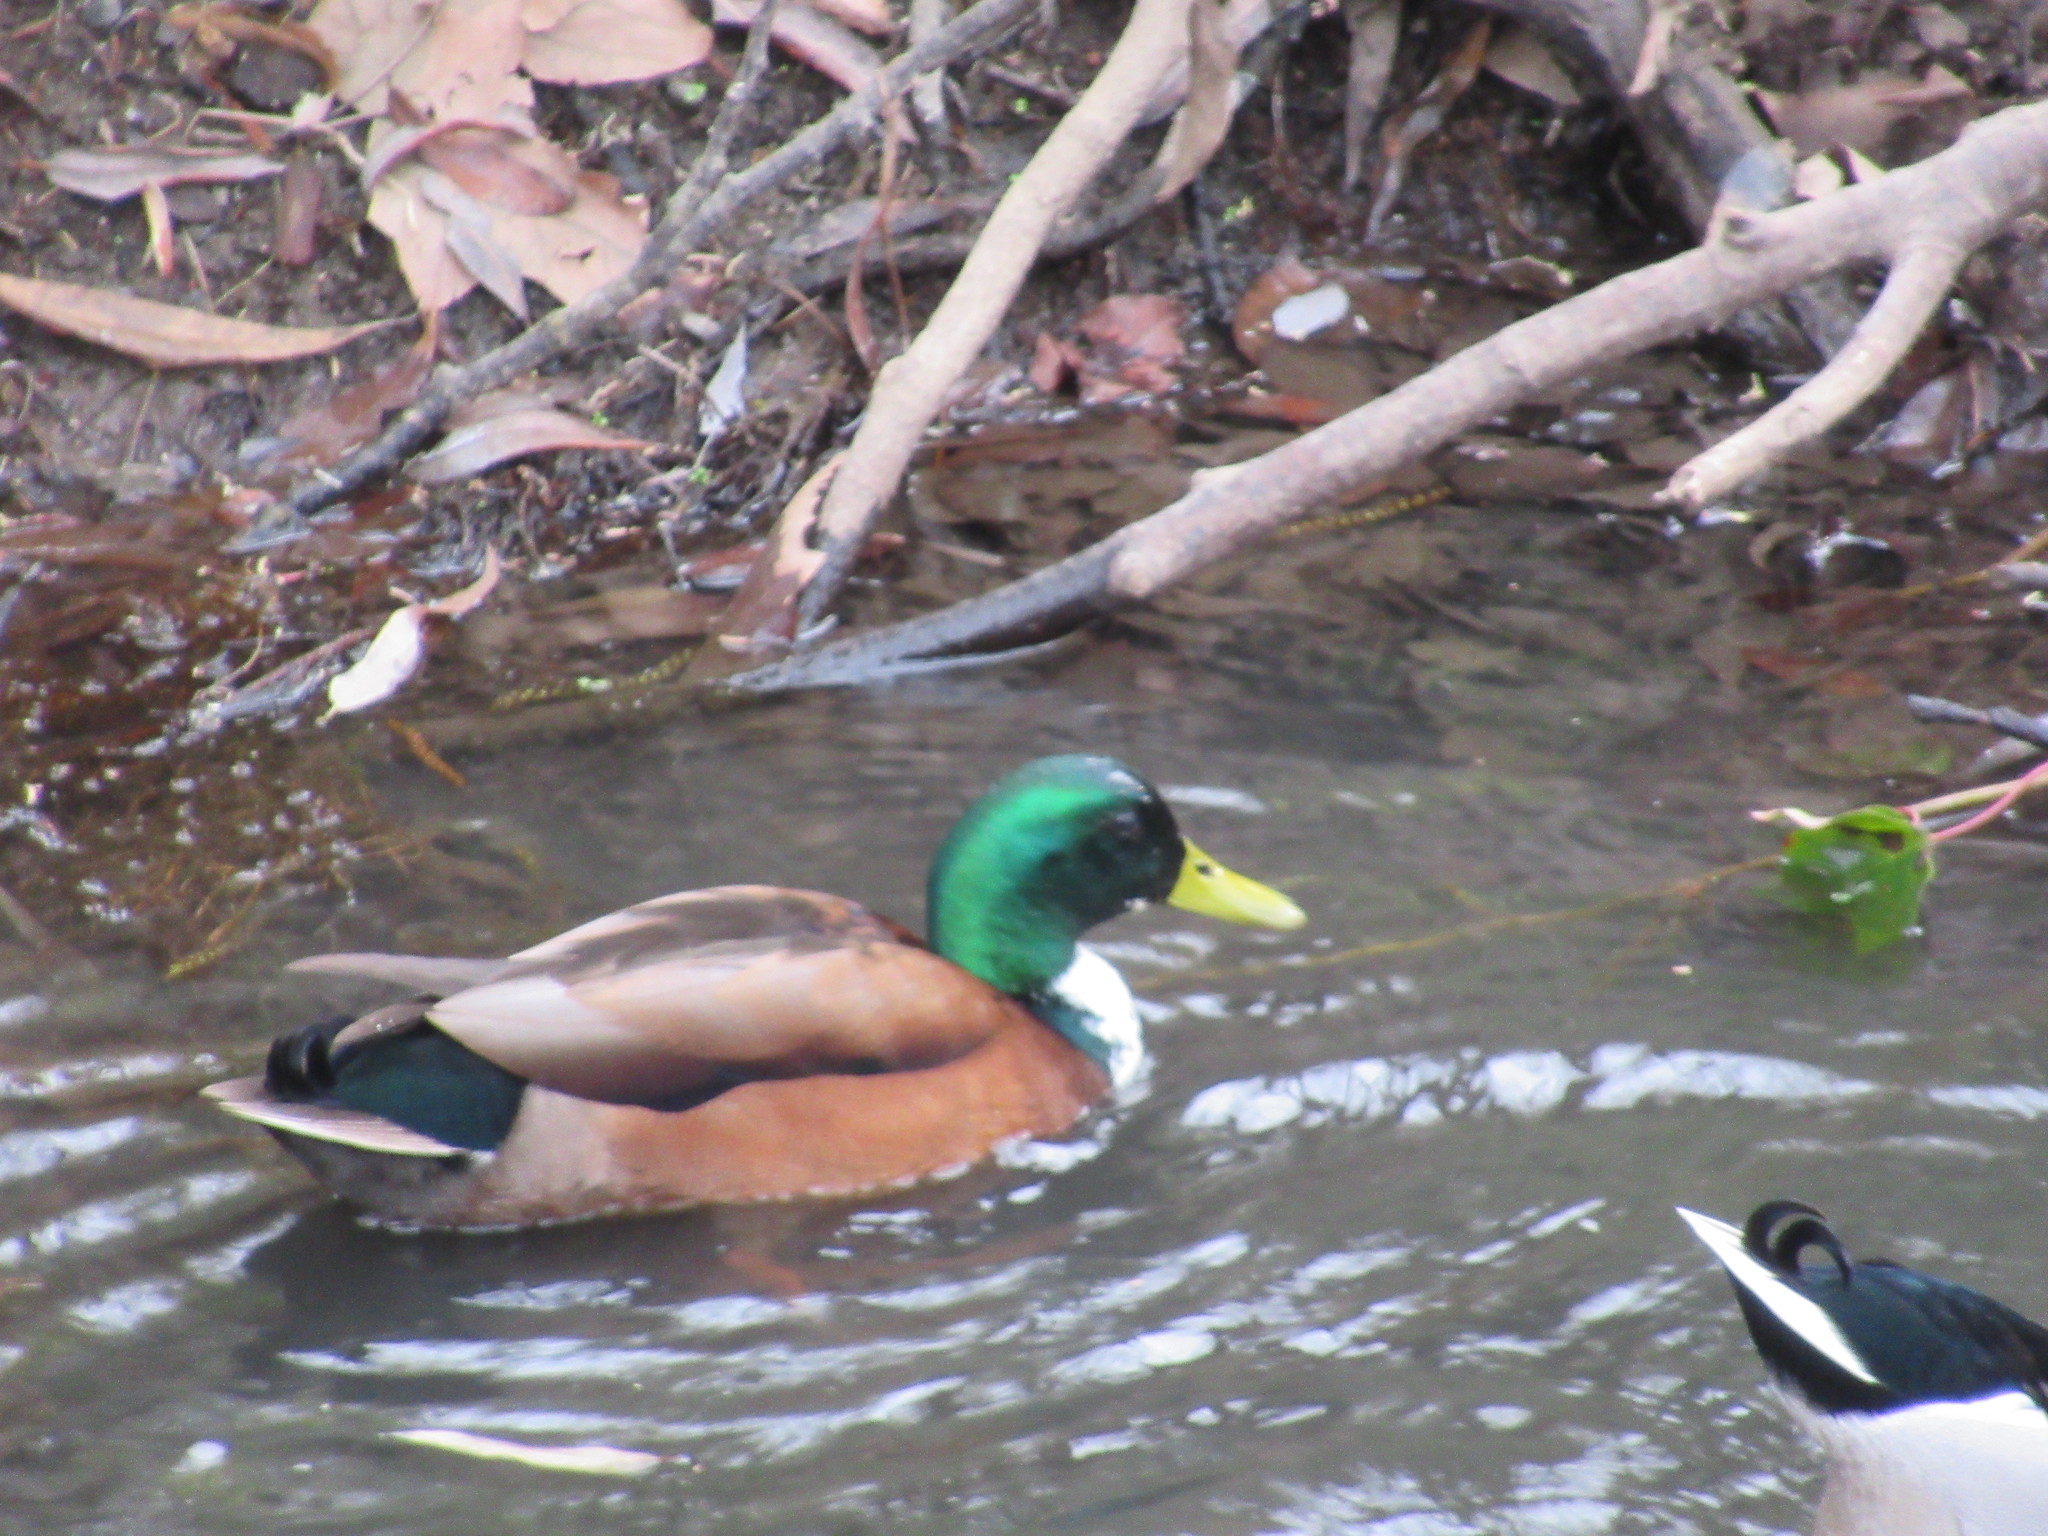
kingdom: Animalia
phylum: Chordata
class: Aves
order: Anseriformes
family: Anatidae
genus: Anas
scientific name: Anas platyrhynchos
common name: Mallard
